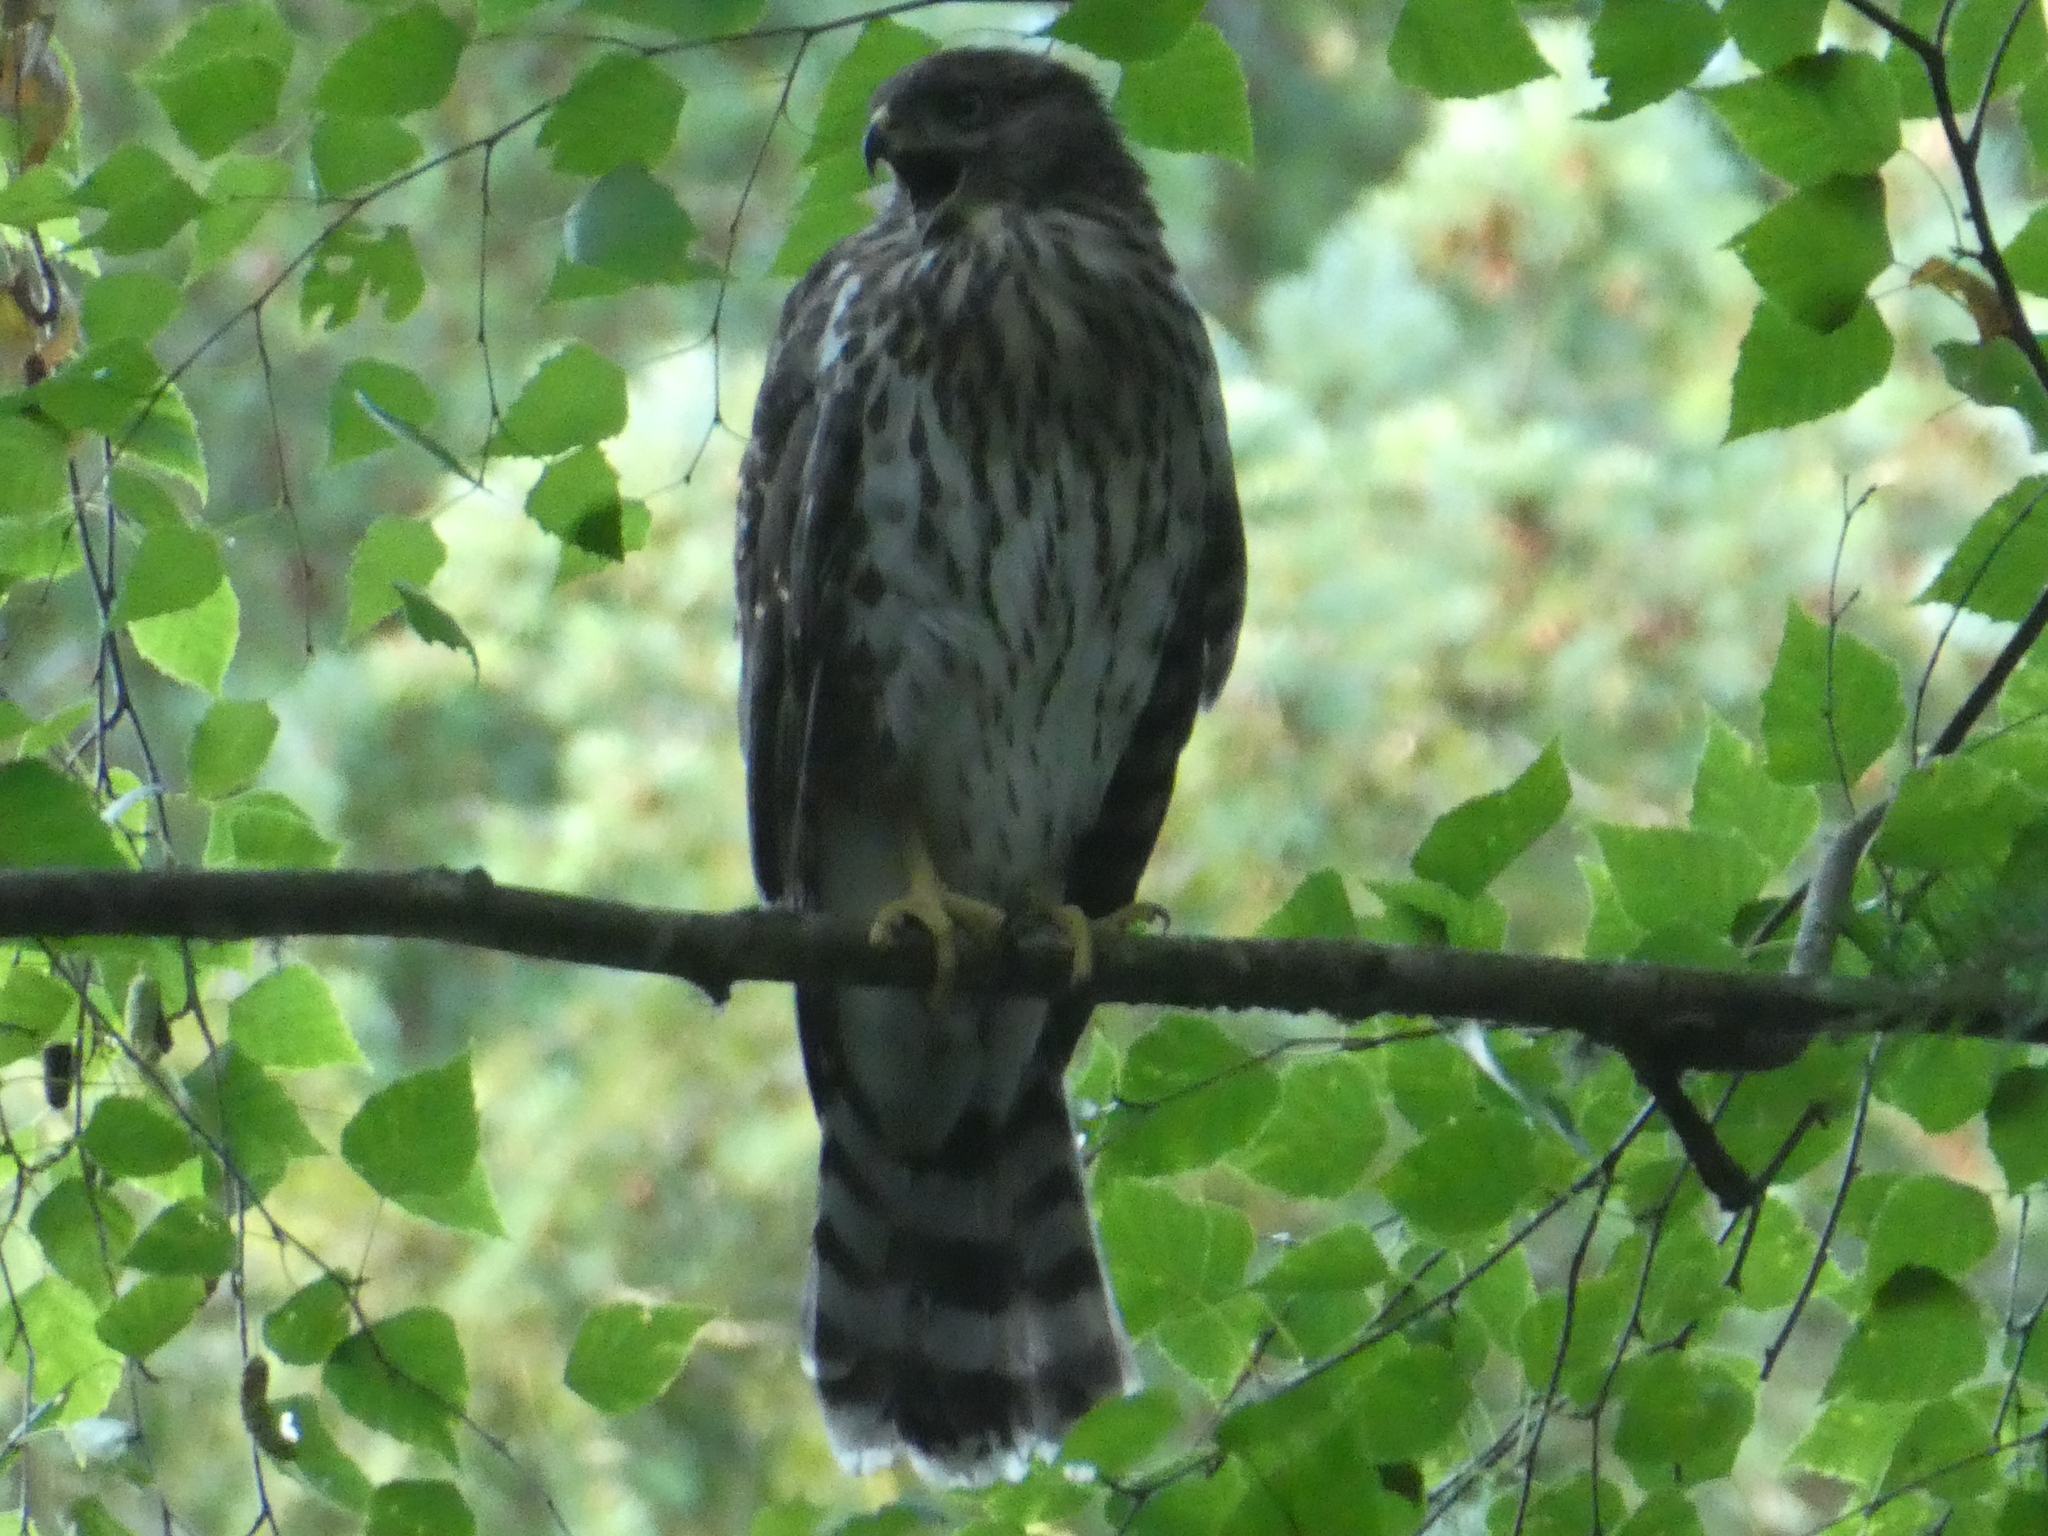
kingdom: Animalia
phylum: Chordata
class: Aves
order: Accipitriformes
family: Accipitridae
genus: Accipiter
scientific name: Accipiter cooperii
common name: Cooper's hawk
